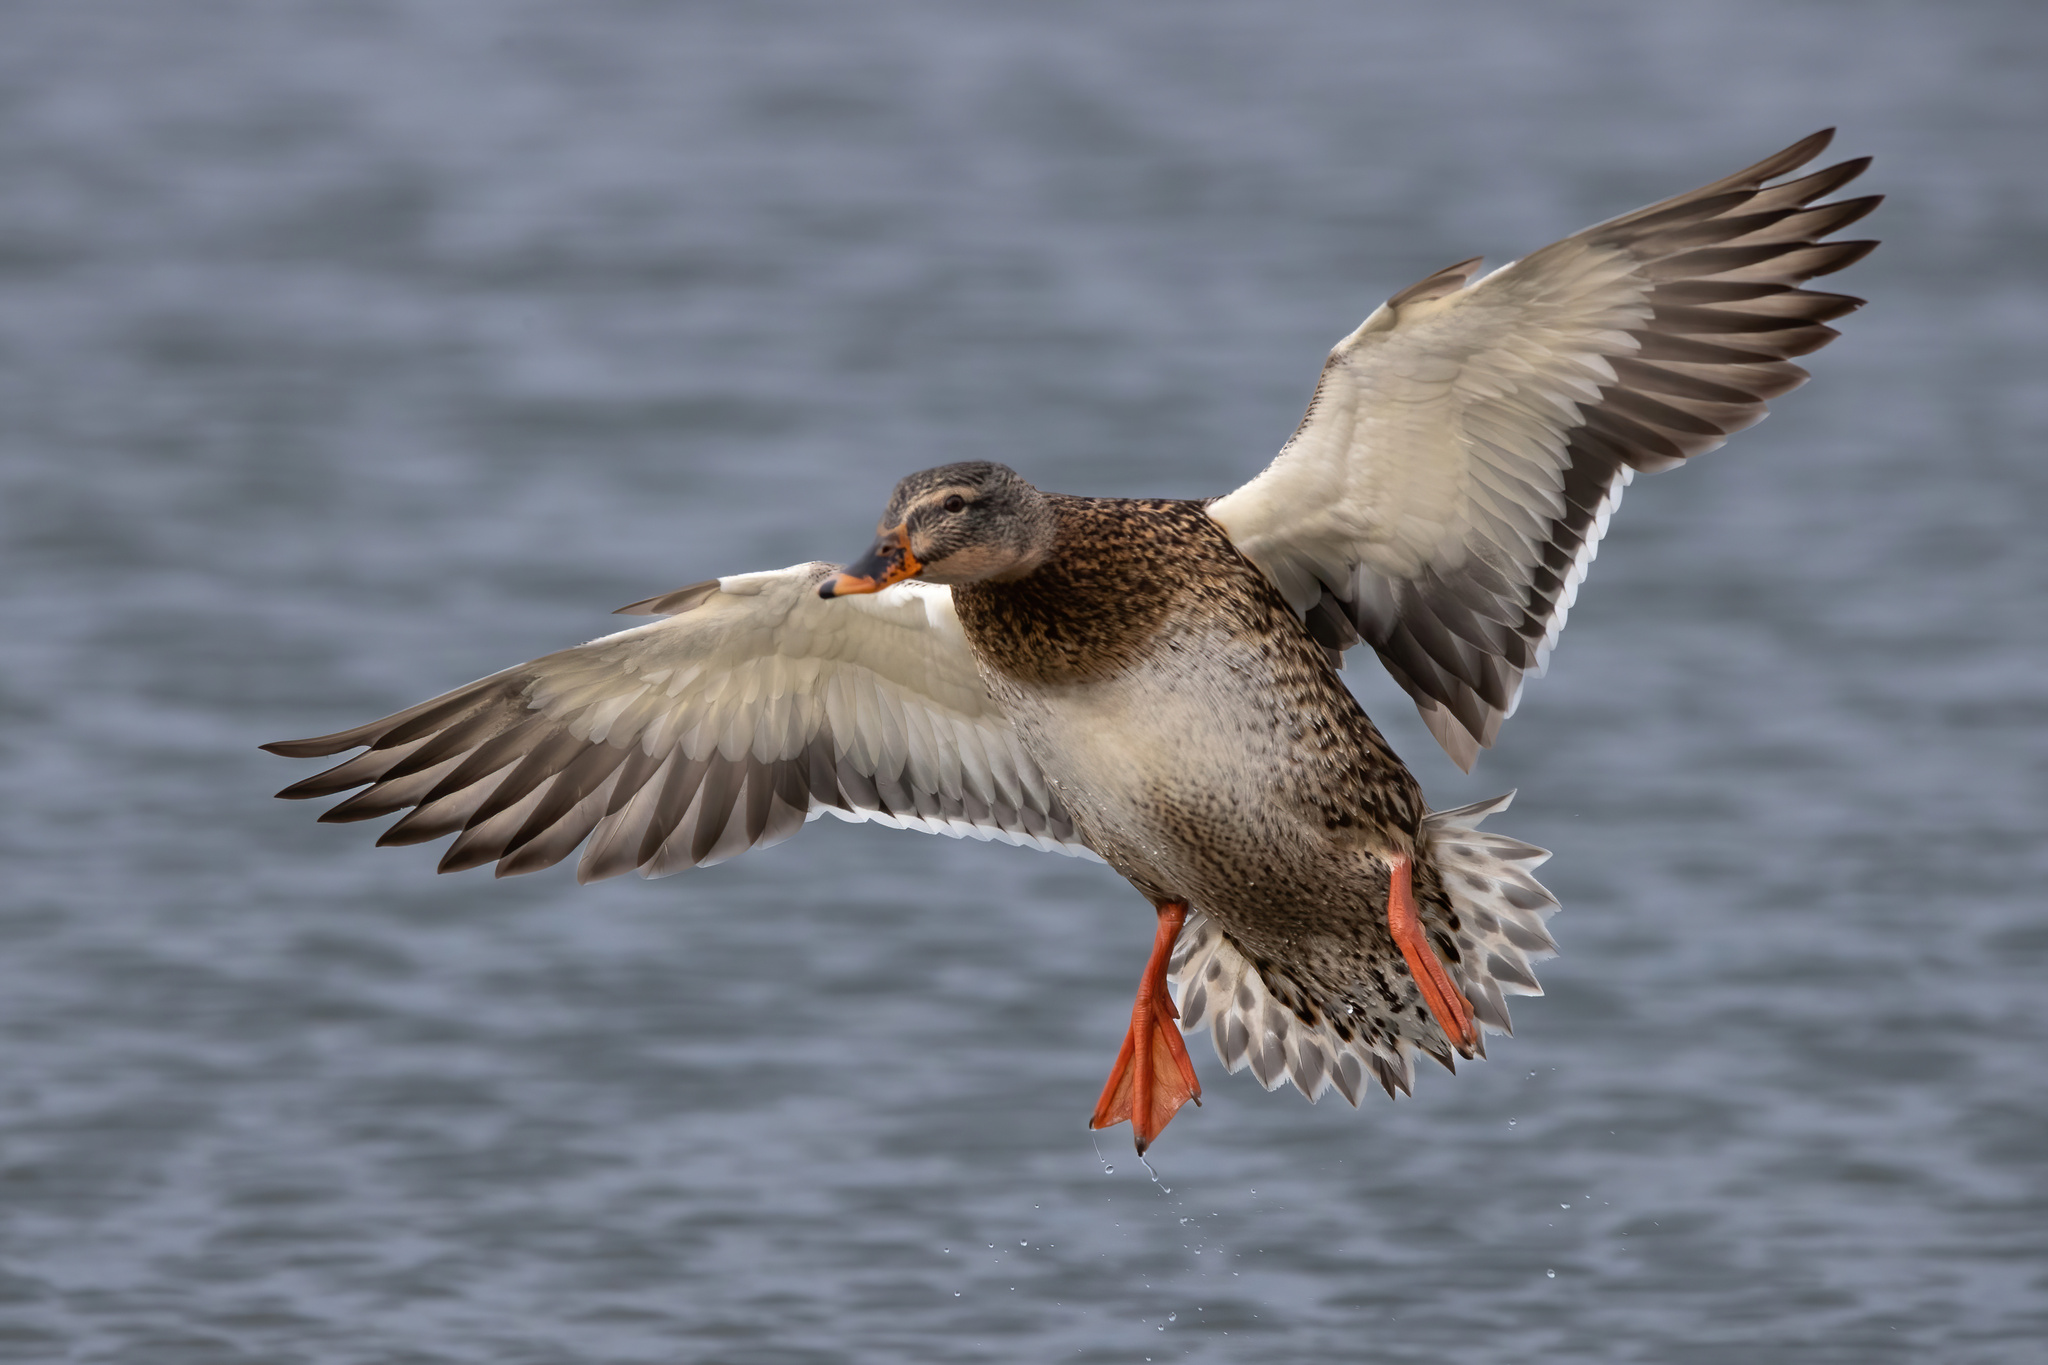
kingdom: Animalia
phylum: Chordata
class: Aves
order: Anseriformes
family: Anatidae
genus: Anas
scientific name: Anas platyrhynchos
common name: Mallard
